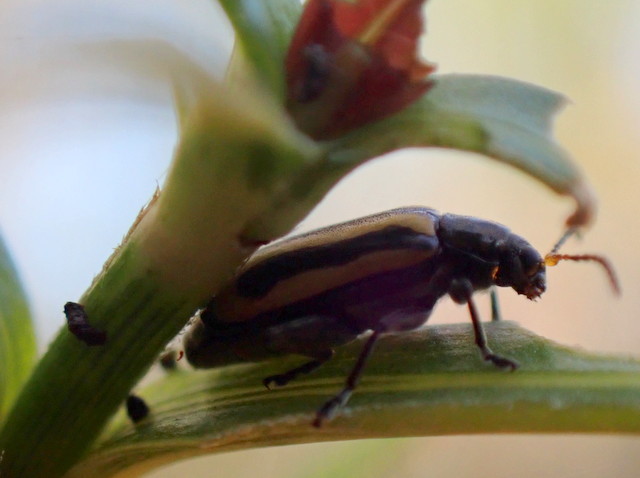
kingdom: Animalia
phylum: Arthropoda
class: Insecta
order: Coleoptera
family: Chrysomelidae
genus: Agasicles
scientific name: Agasicles hygrophila
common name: Alligatorweed flea beetle
